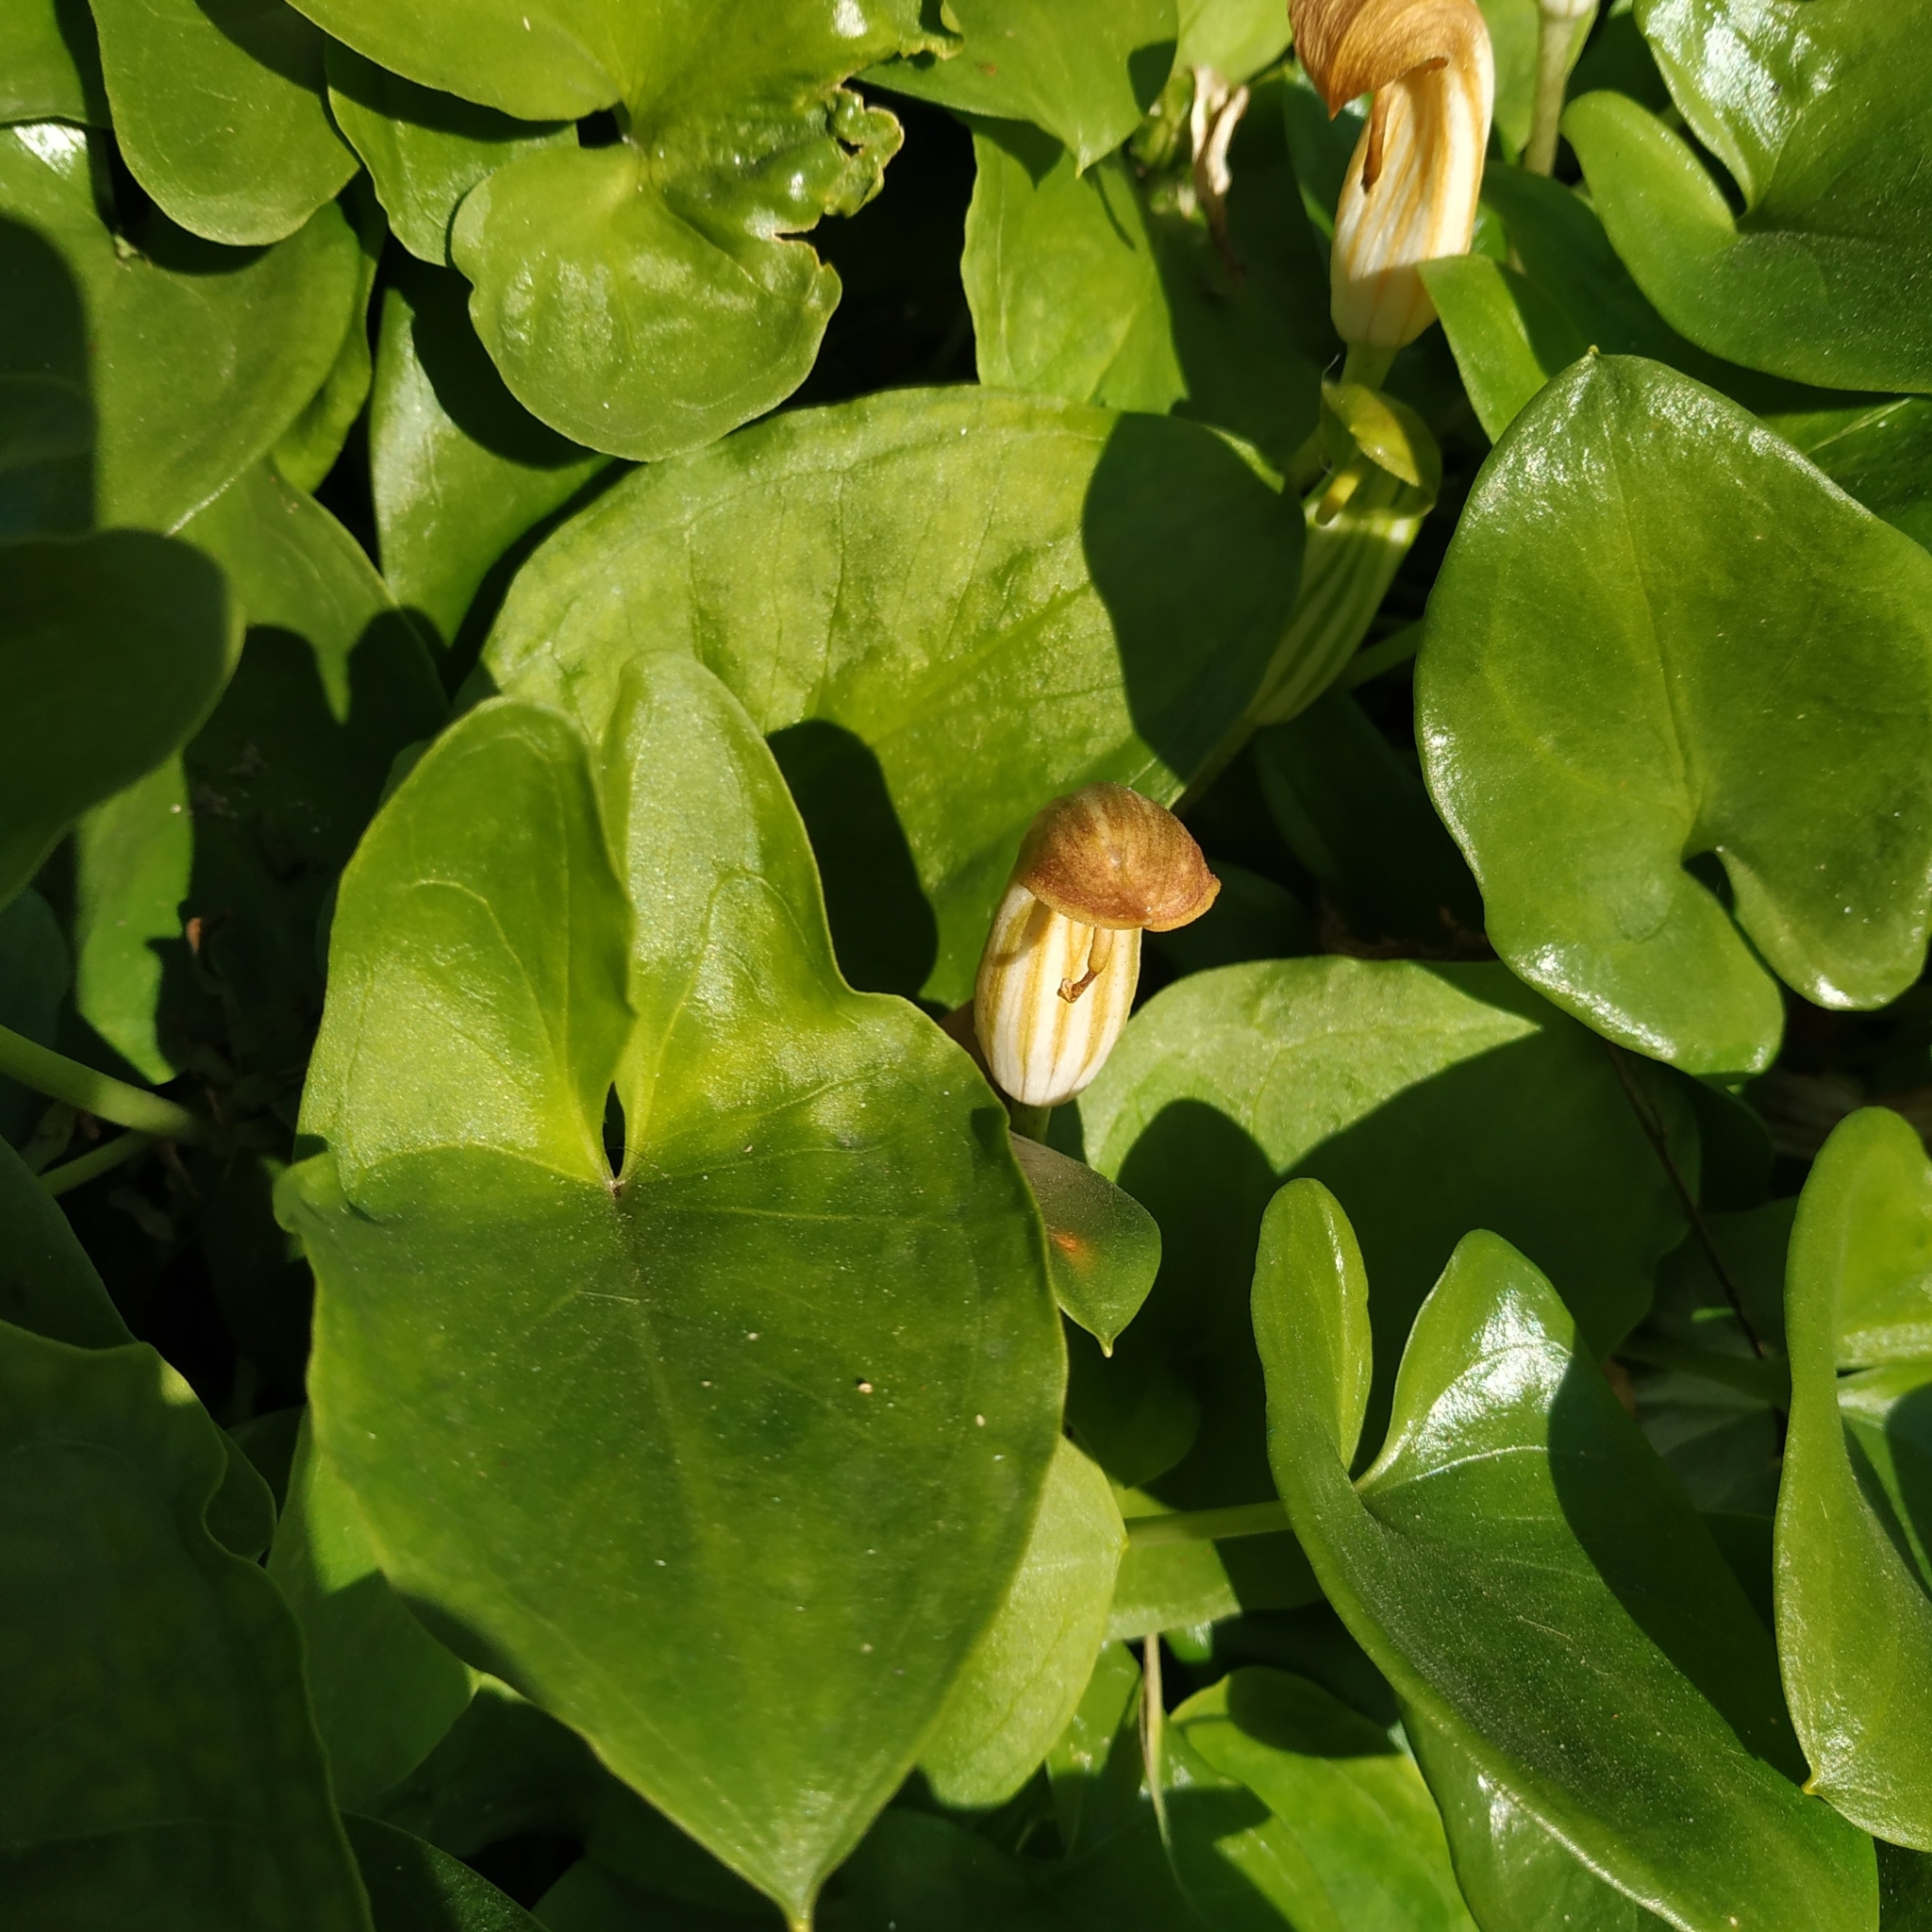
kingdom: Plantae
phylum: Tracheophyta
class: Liliopsida
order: Alismatales
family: Araceae
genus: Arisarum
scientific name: Arisarum vulgare
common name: Common arisarum
